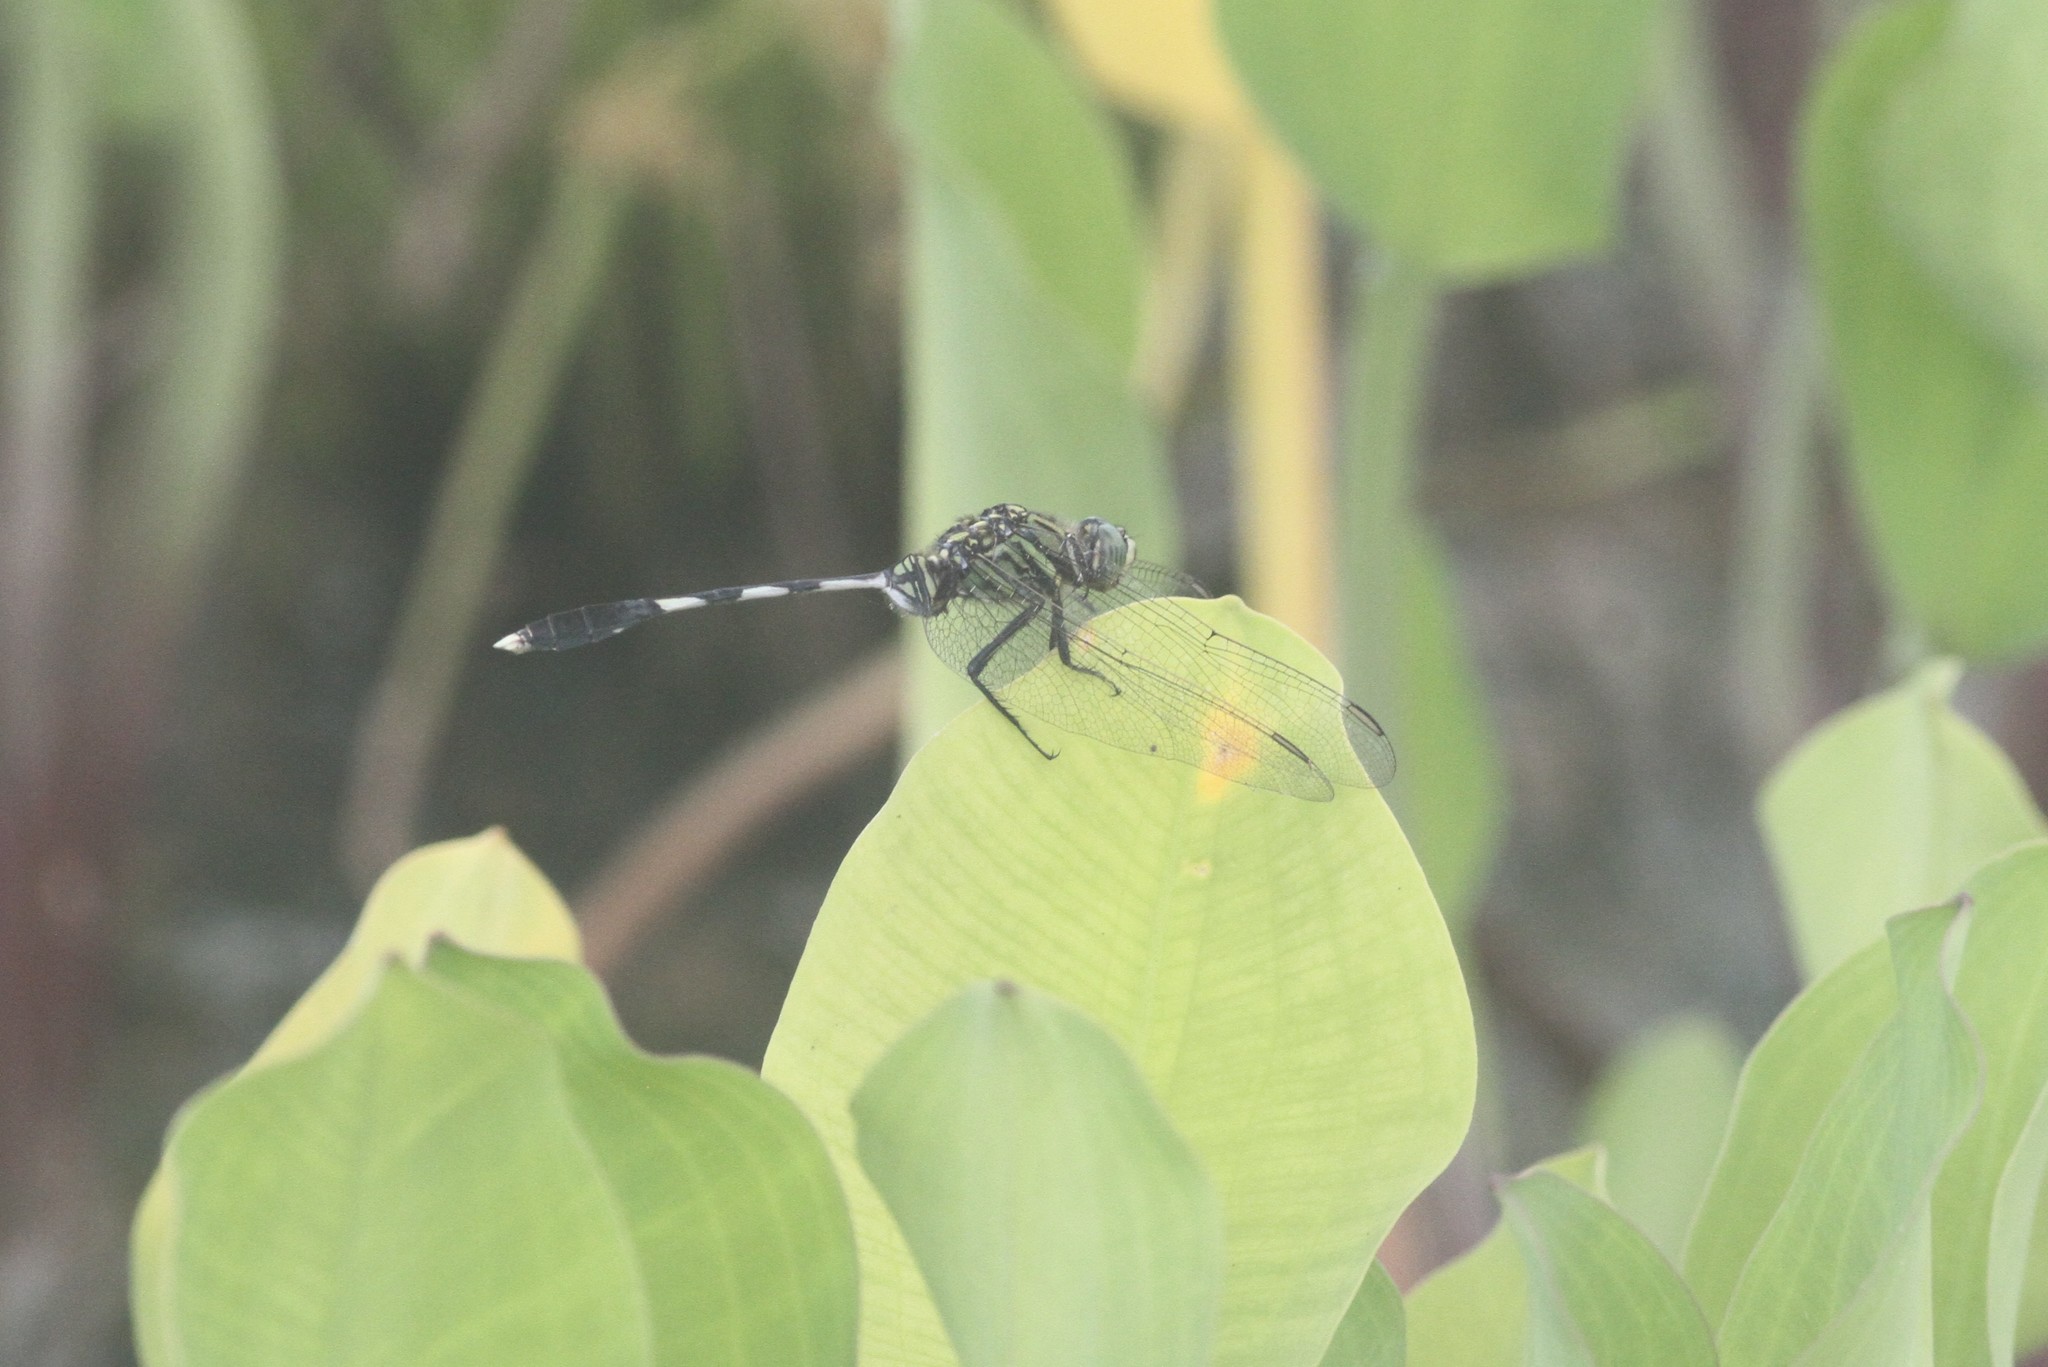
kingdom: Animalia
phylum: Arthropoda
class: Insecta
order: Odonata
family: Libellulidae
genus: Orthetrum
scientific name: Orthetrum sabina
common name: Slender skimmer
